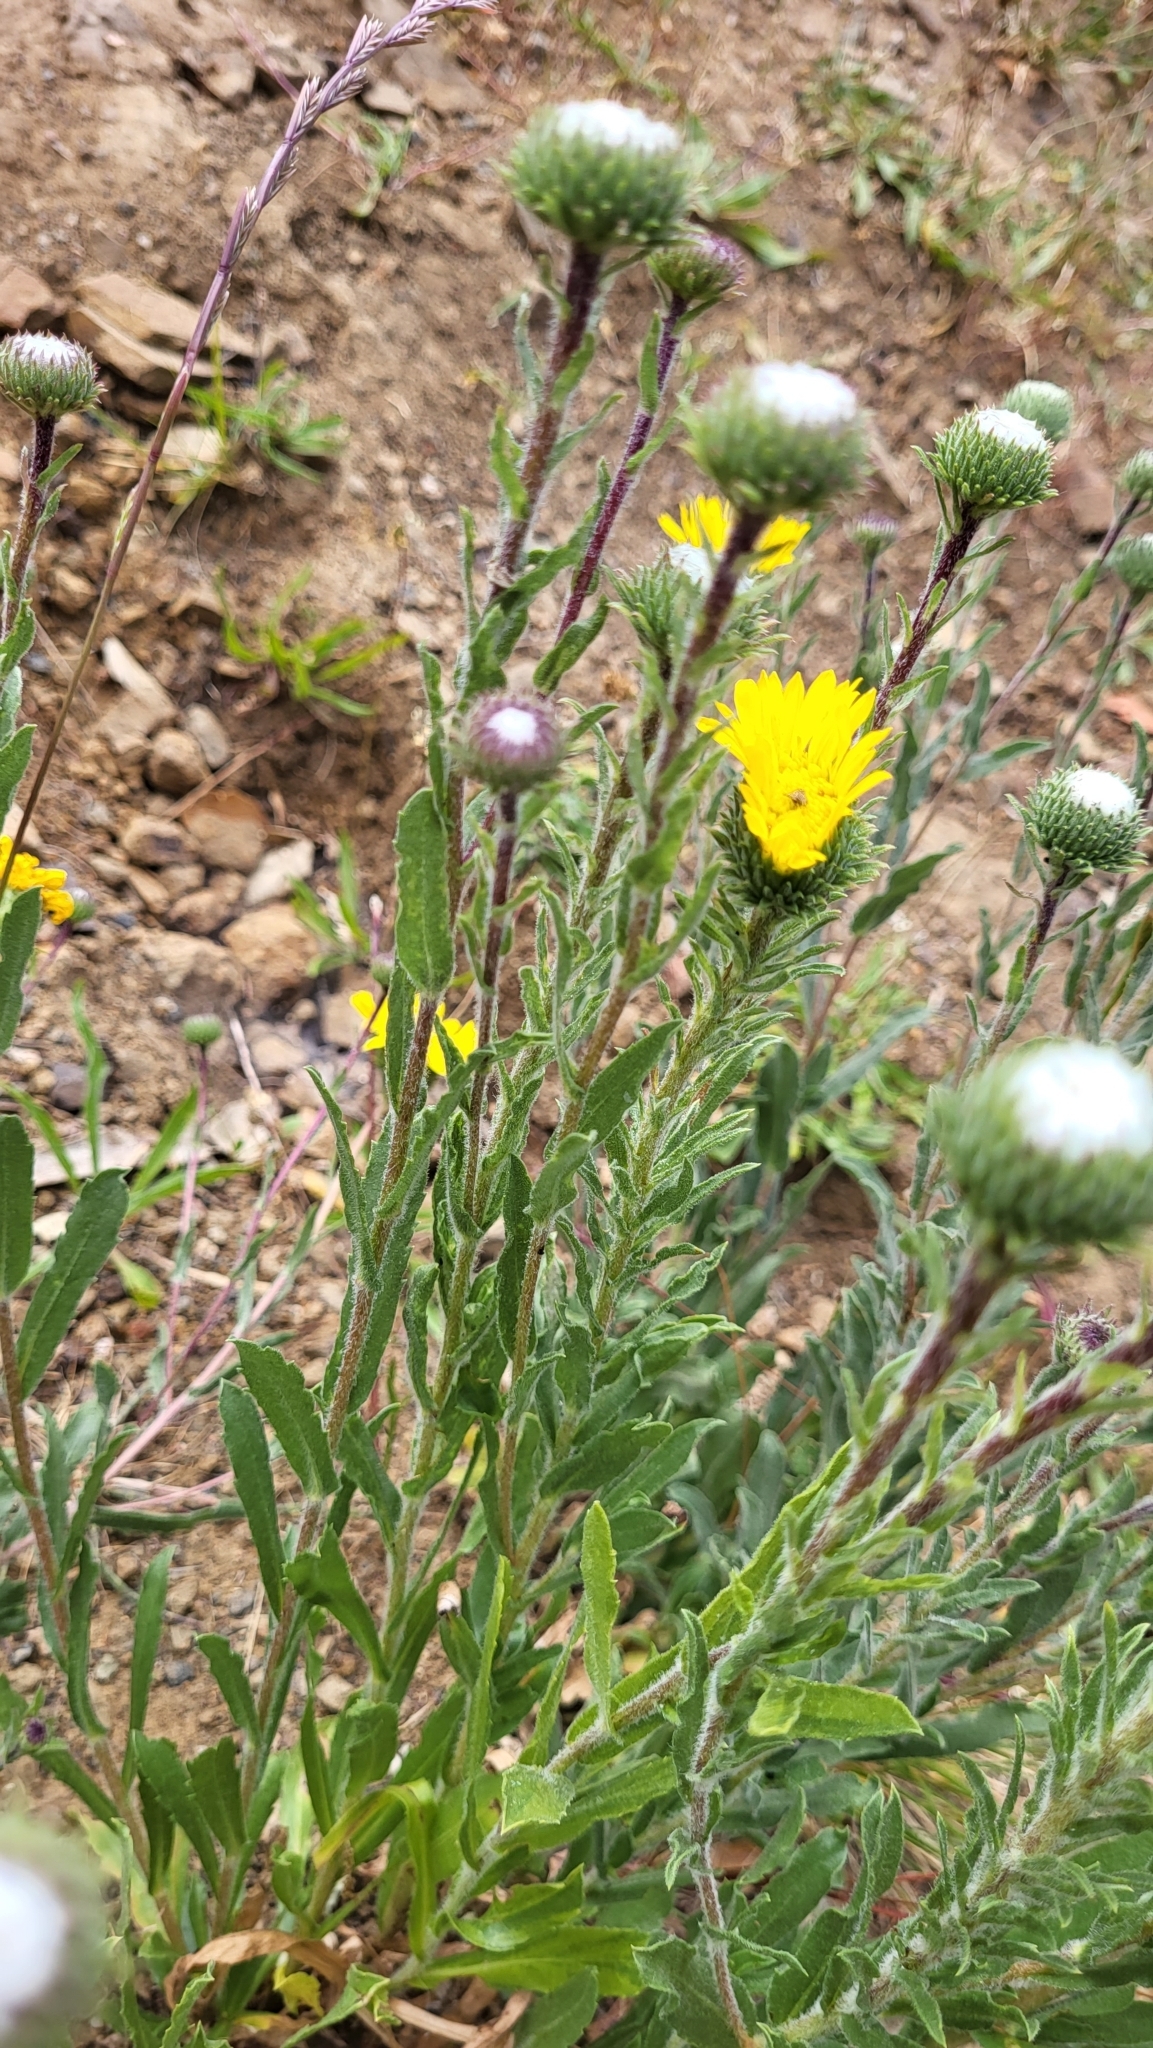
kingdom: Plantae
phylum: Tracheophyta
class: Magnoliopsida
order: Asterales
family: Asteraceae
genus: Grindelia
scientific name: Grindelia hirsutula
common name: Hairy gumweed
